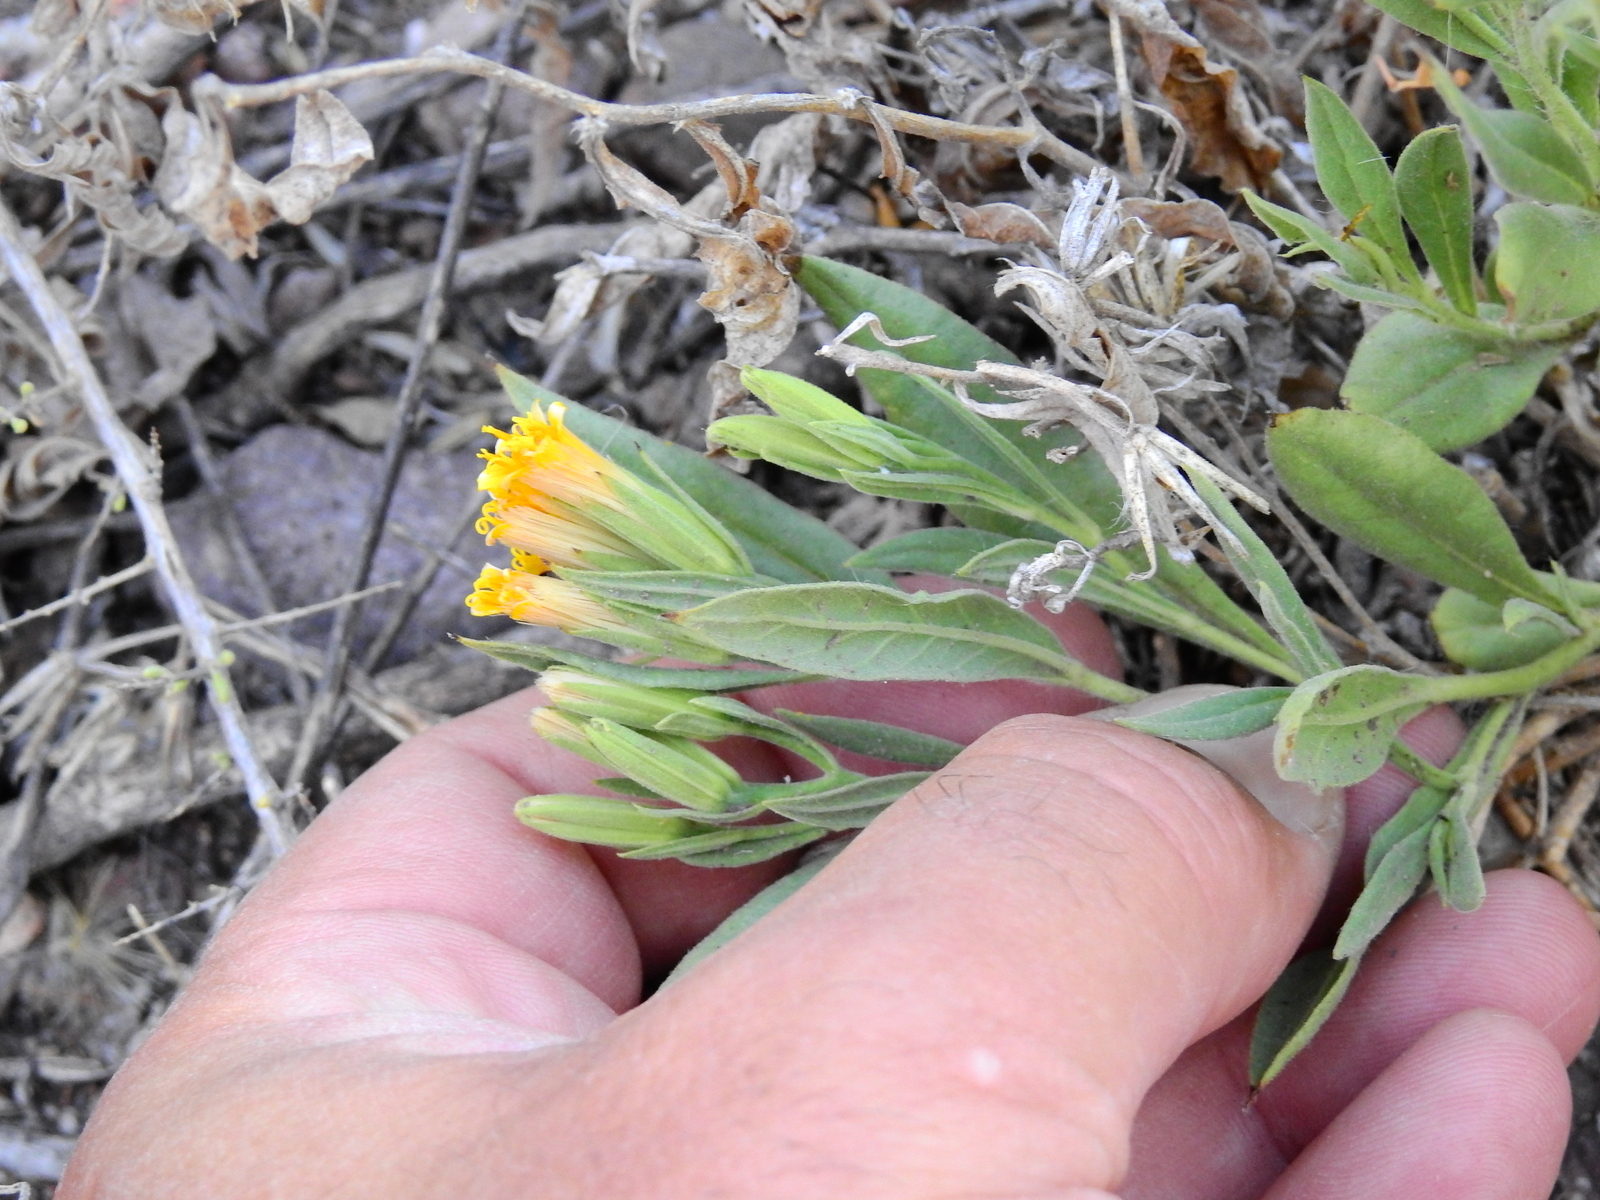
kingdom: Plantae
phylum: Tracheophyta
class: Magnoliopsida
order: Asterales
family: Asteraceae
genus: Trixis
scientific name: Trixis cacalioides
